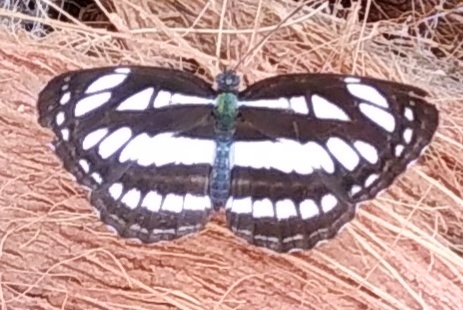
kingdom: Animalia
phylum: Arthropoda
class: Insecta
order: Lepidoptera
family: Nymphalidae
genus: Neptis
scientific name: Neptis hylas
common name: Common sailer
